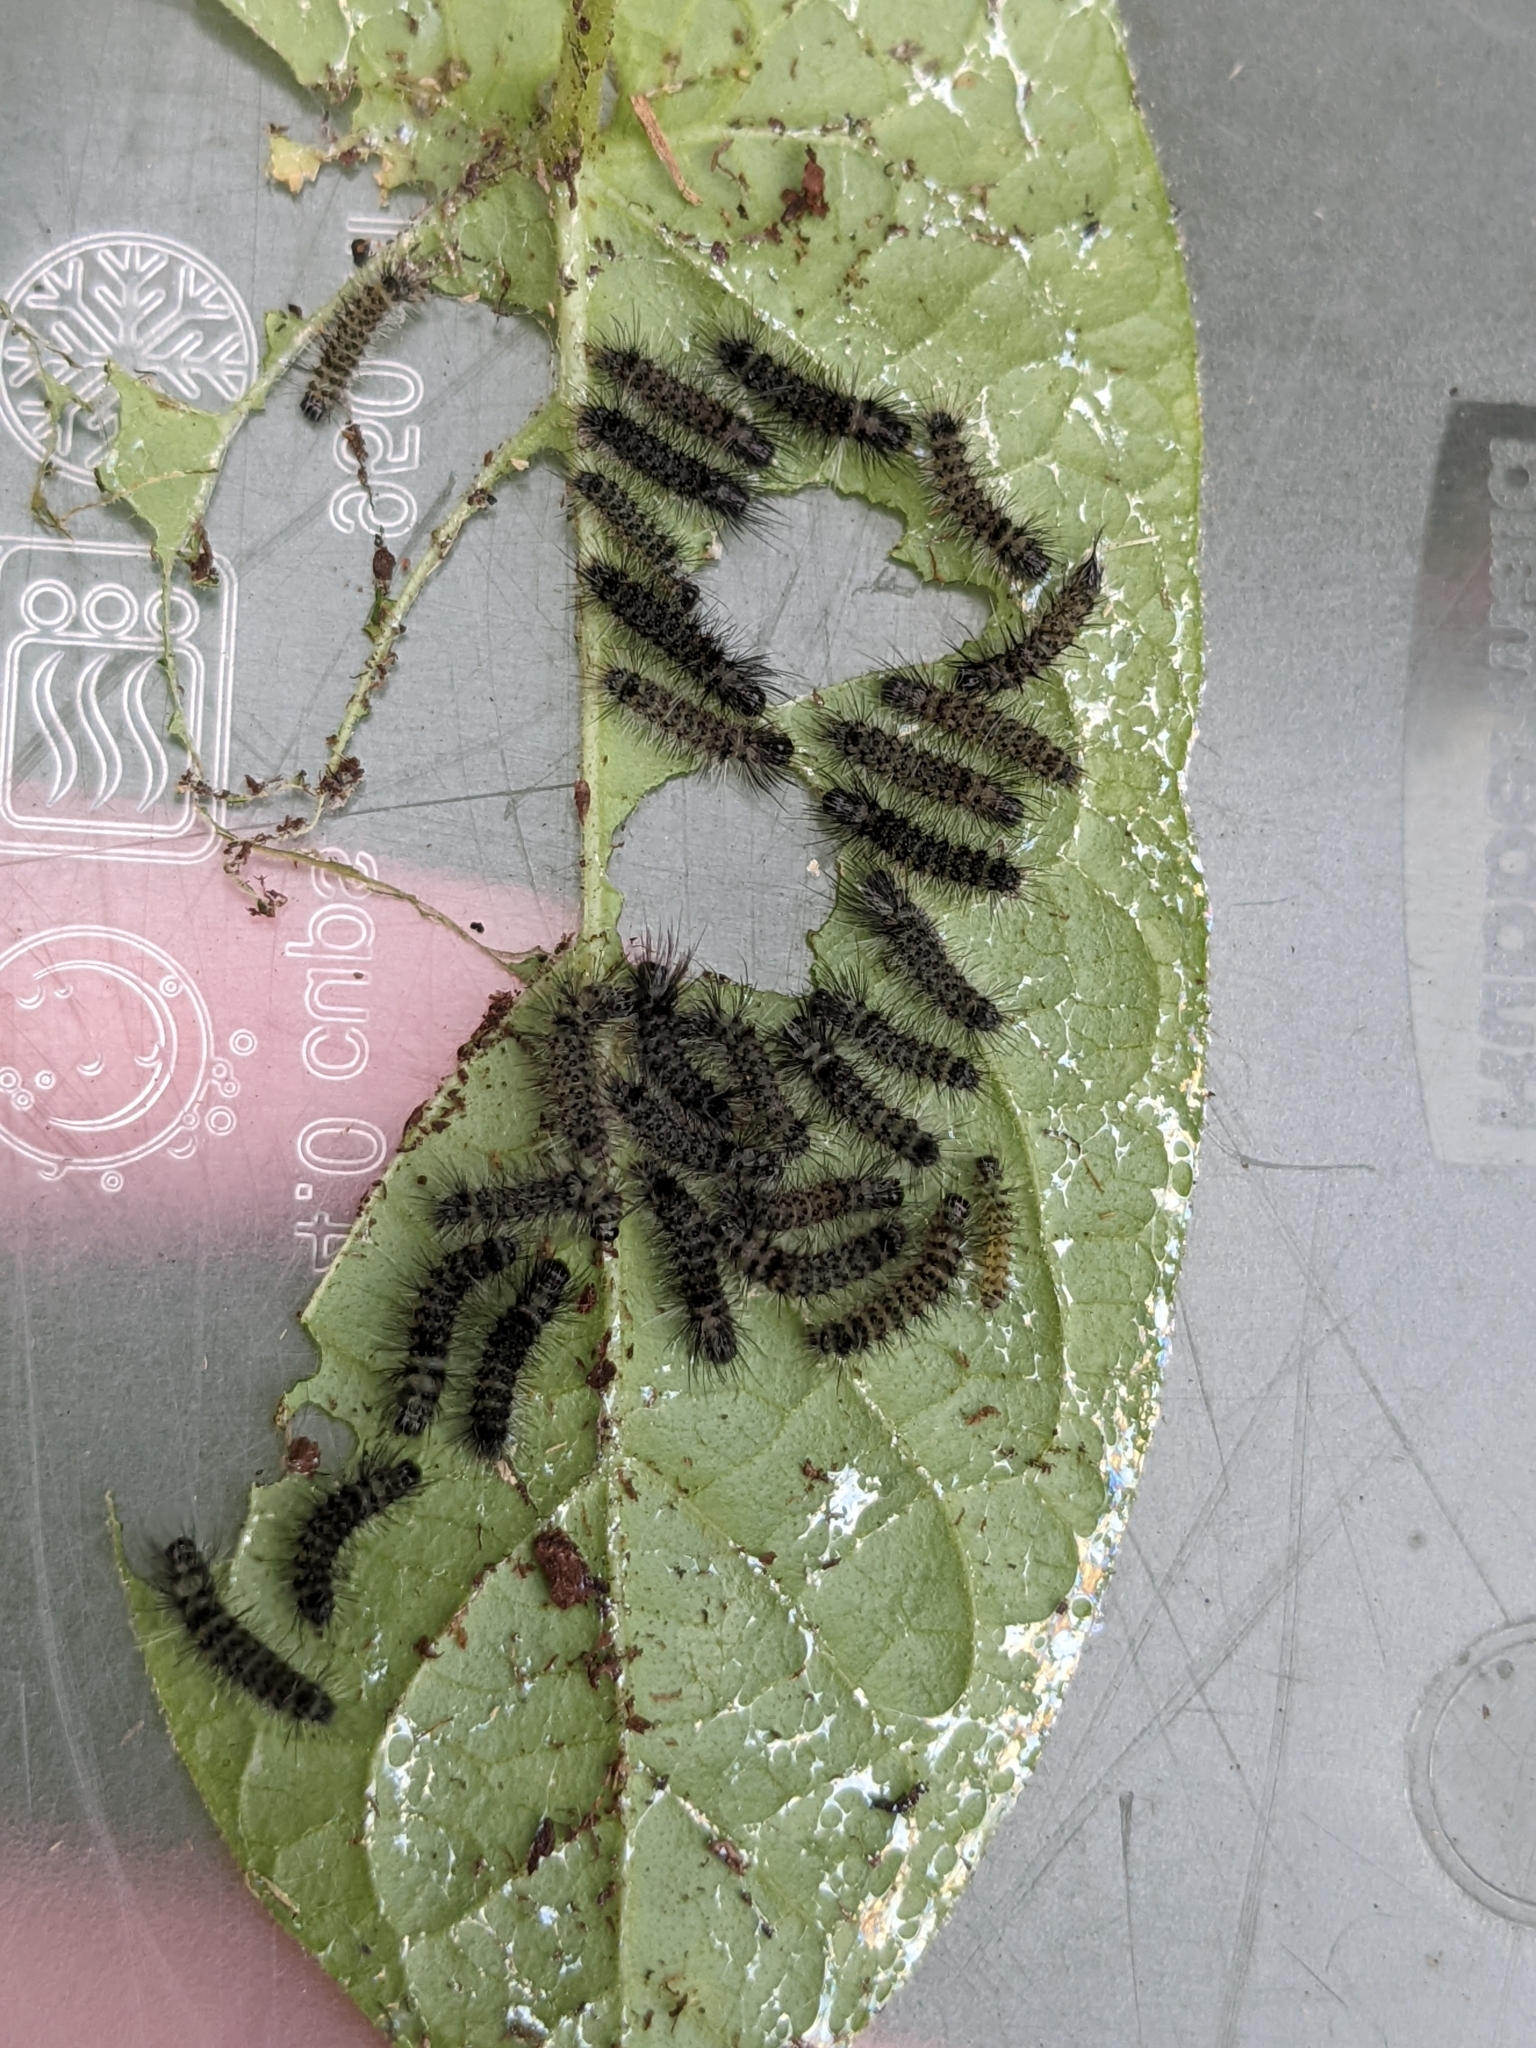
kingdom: Animalia
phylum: Arthropoda
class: Insecta
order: Lepidoptera
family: Erebidae
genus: Euchaetes
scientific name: Euchaetes egle
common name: Milkweed tussock moth
